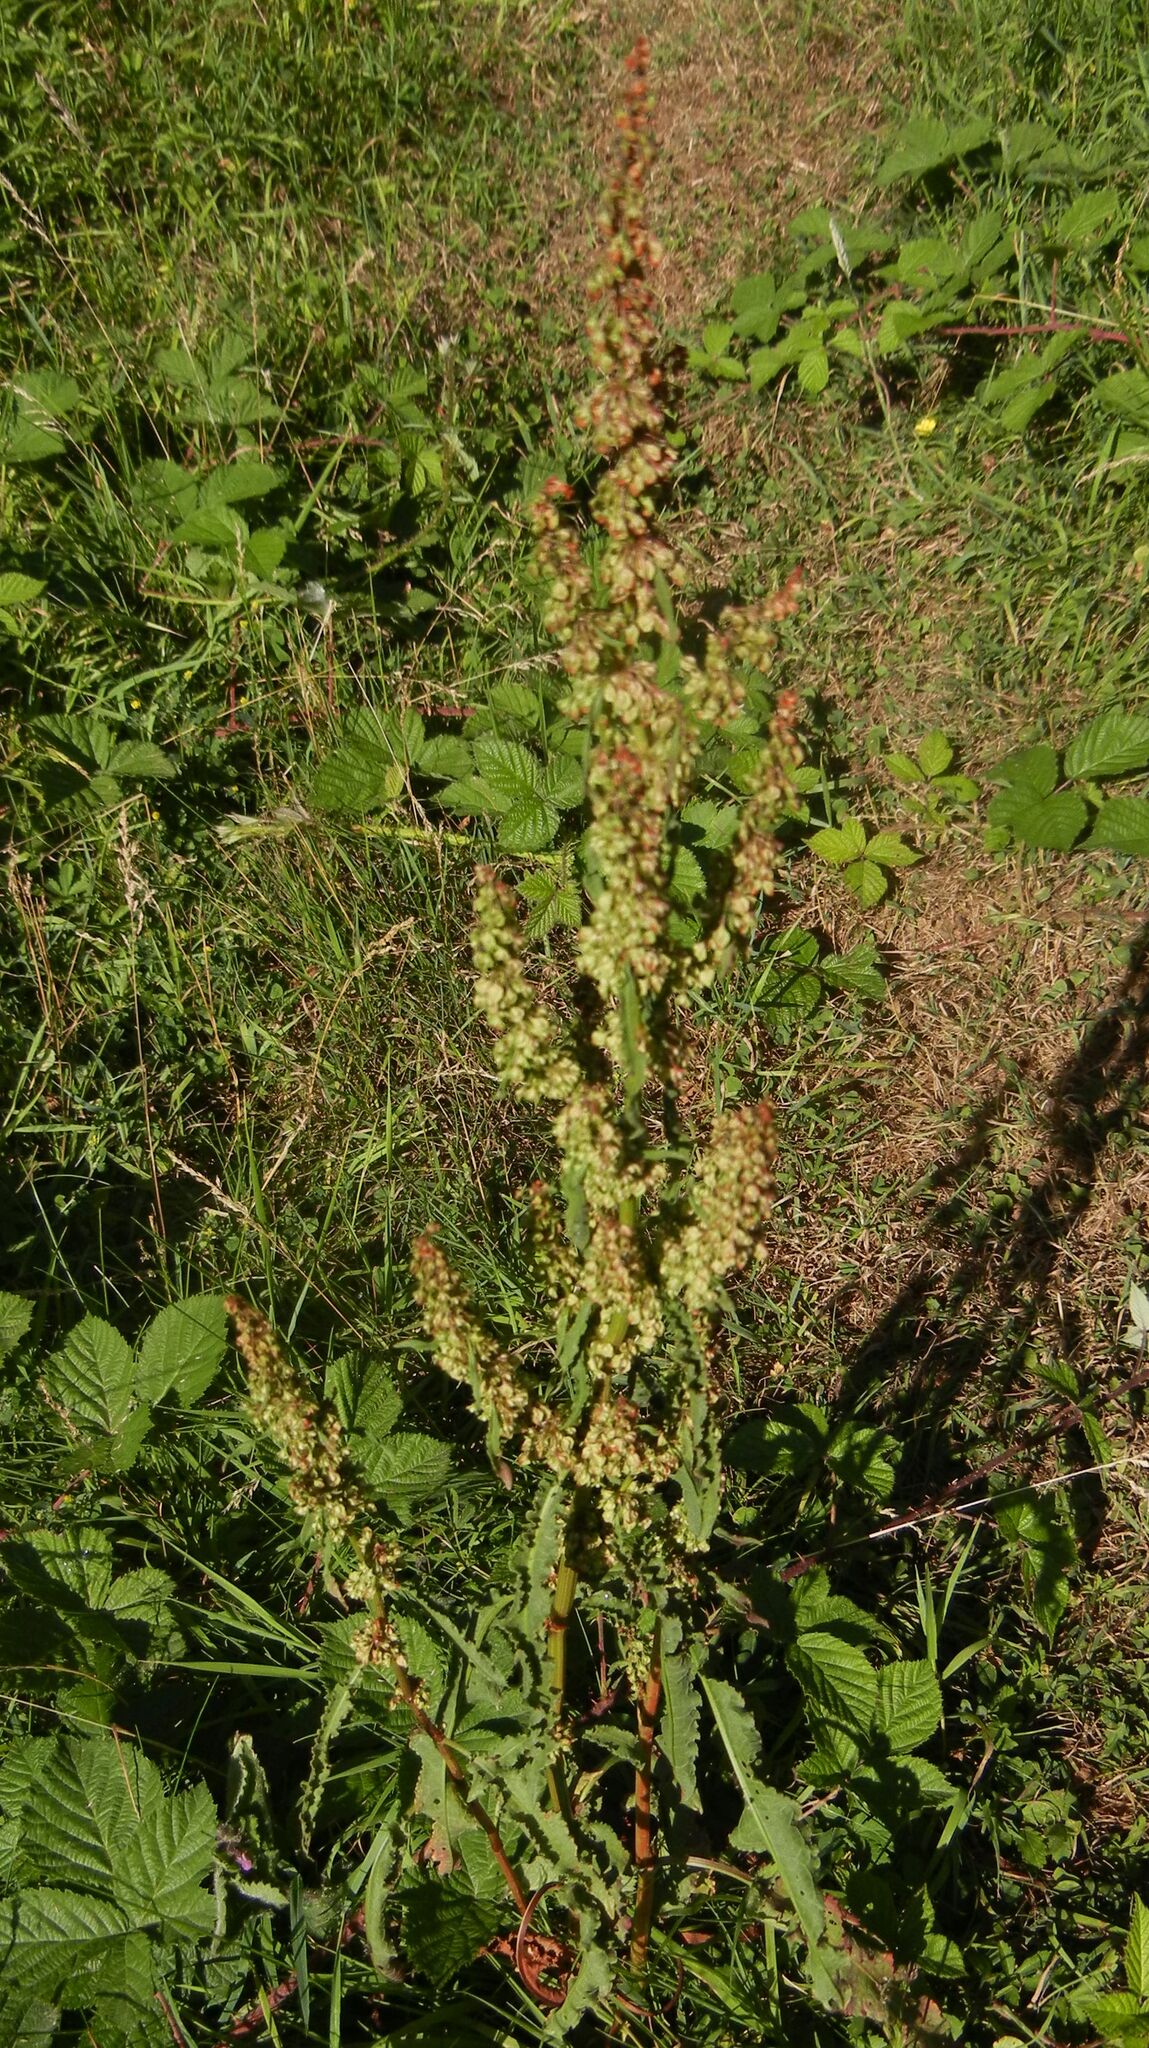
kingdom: Plantae
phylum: Tracheophyta
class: Magnoliopsida
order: Caryophyllales
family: Polygonaceae
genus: Rumex
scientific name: Rumex crispus
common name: Curled dock
